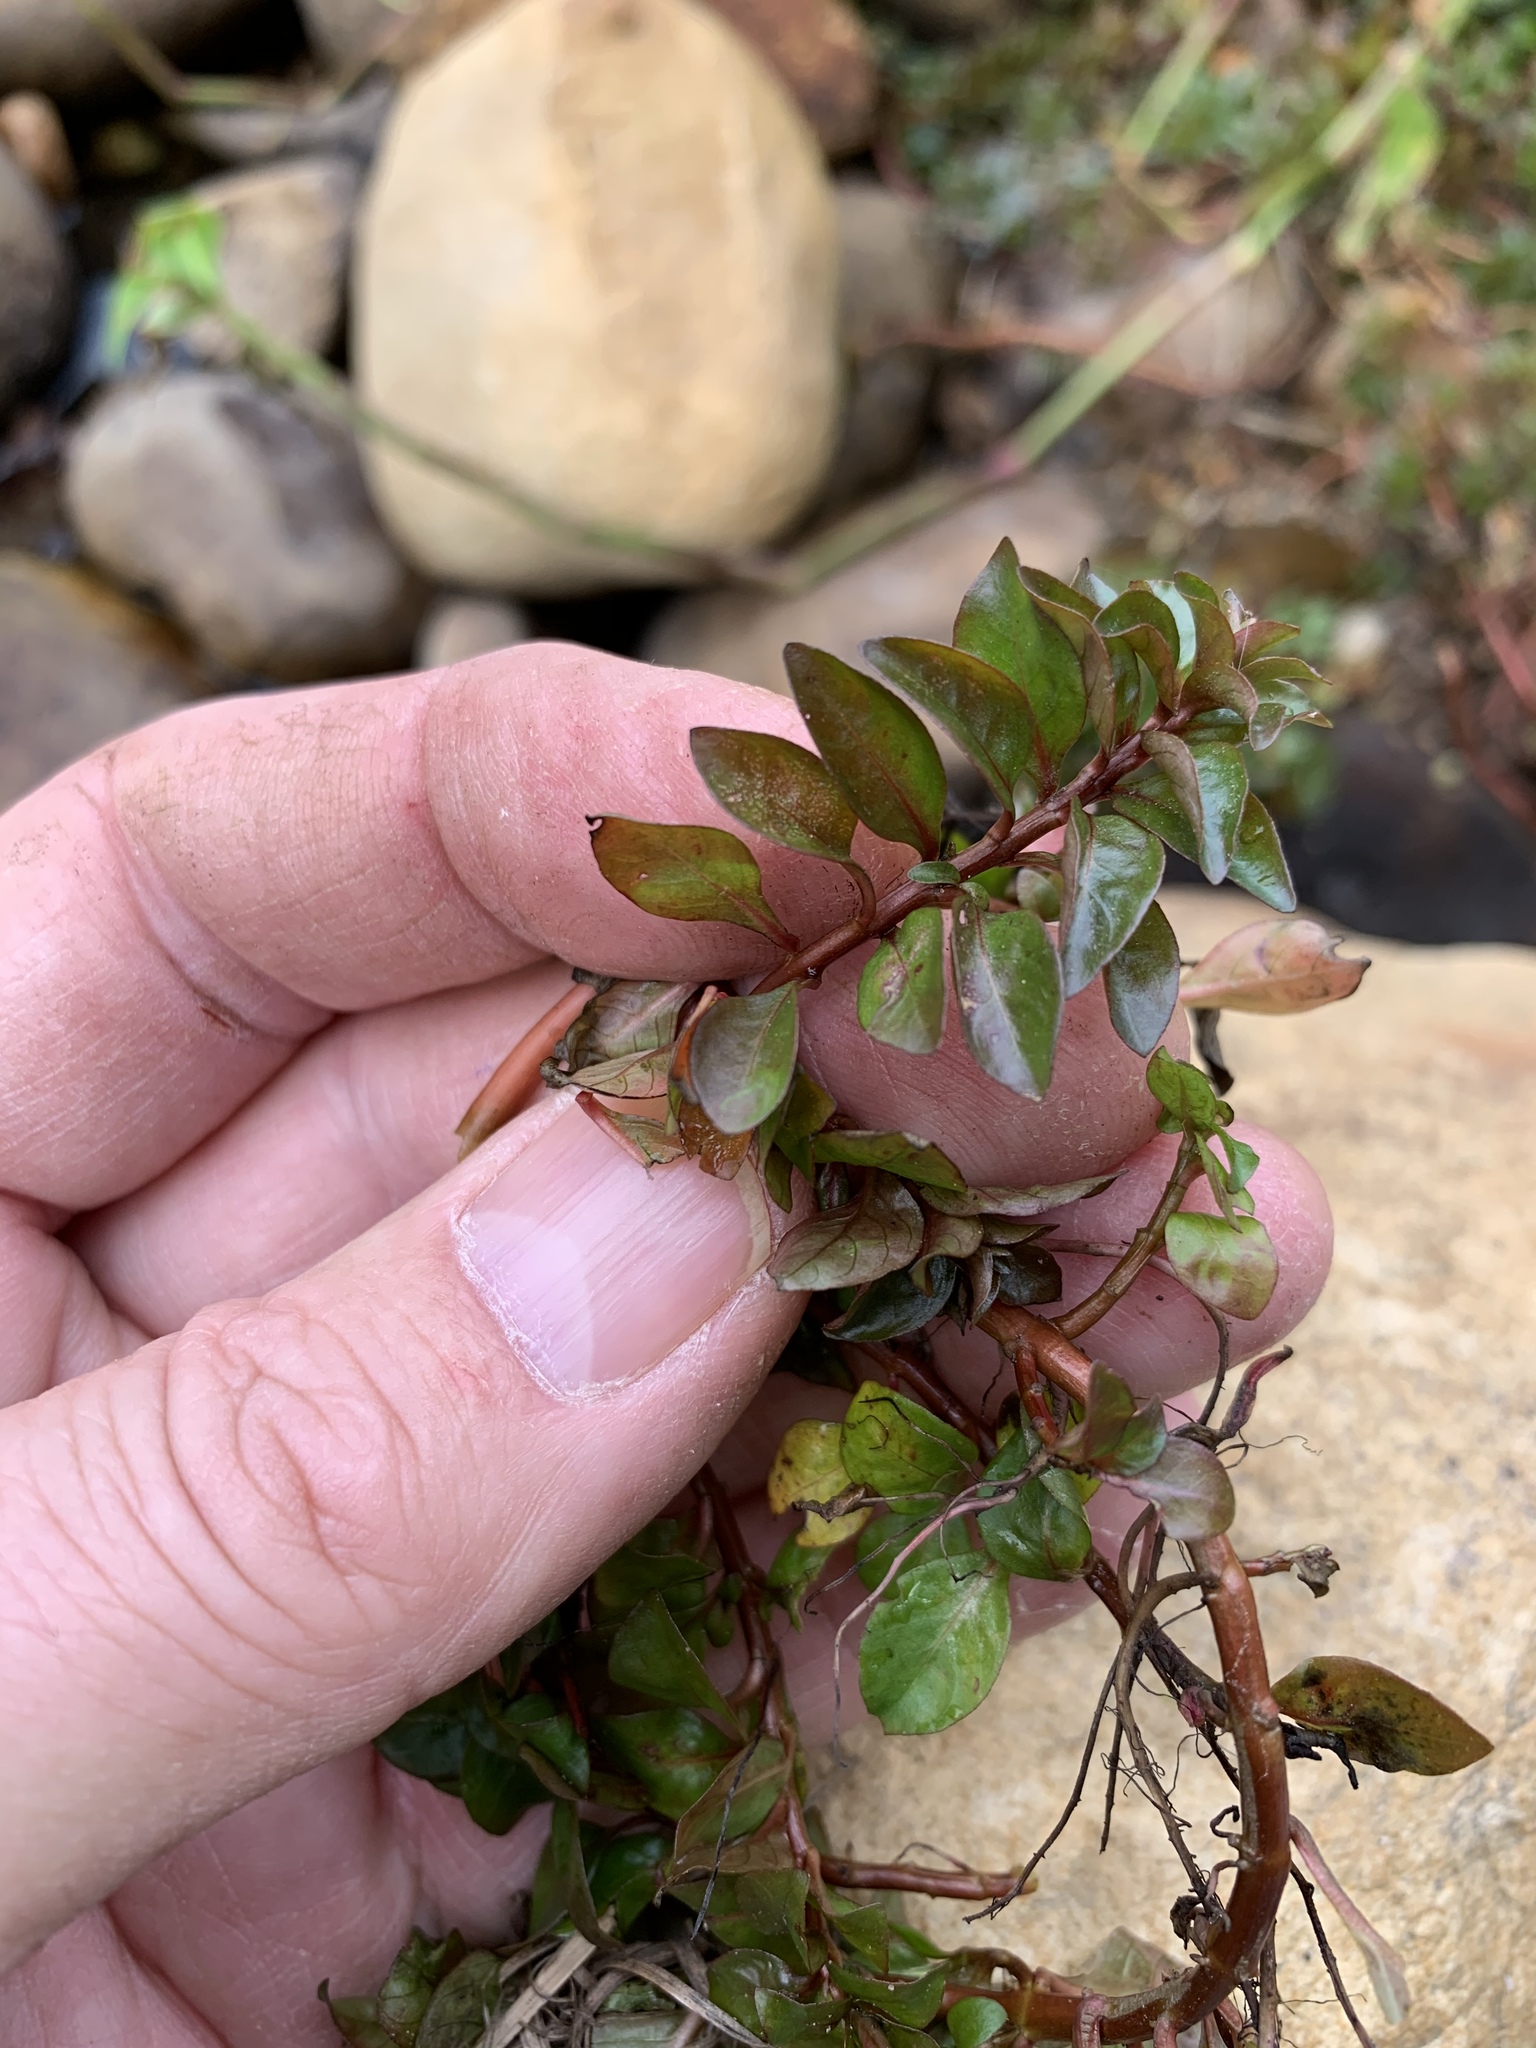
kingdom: Plantae
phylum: Tracheophyta
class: Magnoliopsida
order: Myrtales
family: Onagraceae
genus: Ludwigia
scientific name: Ludwigia palustris
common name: Hampshire-purslane
